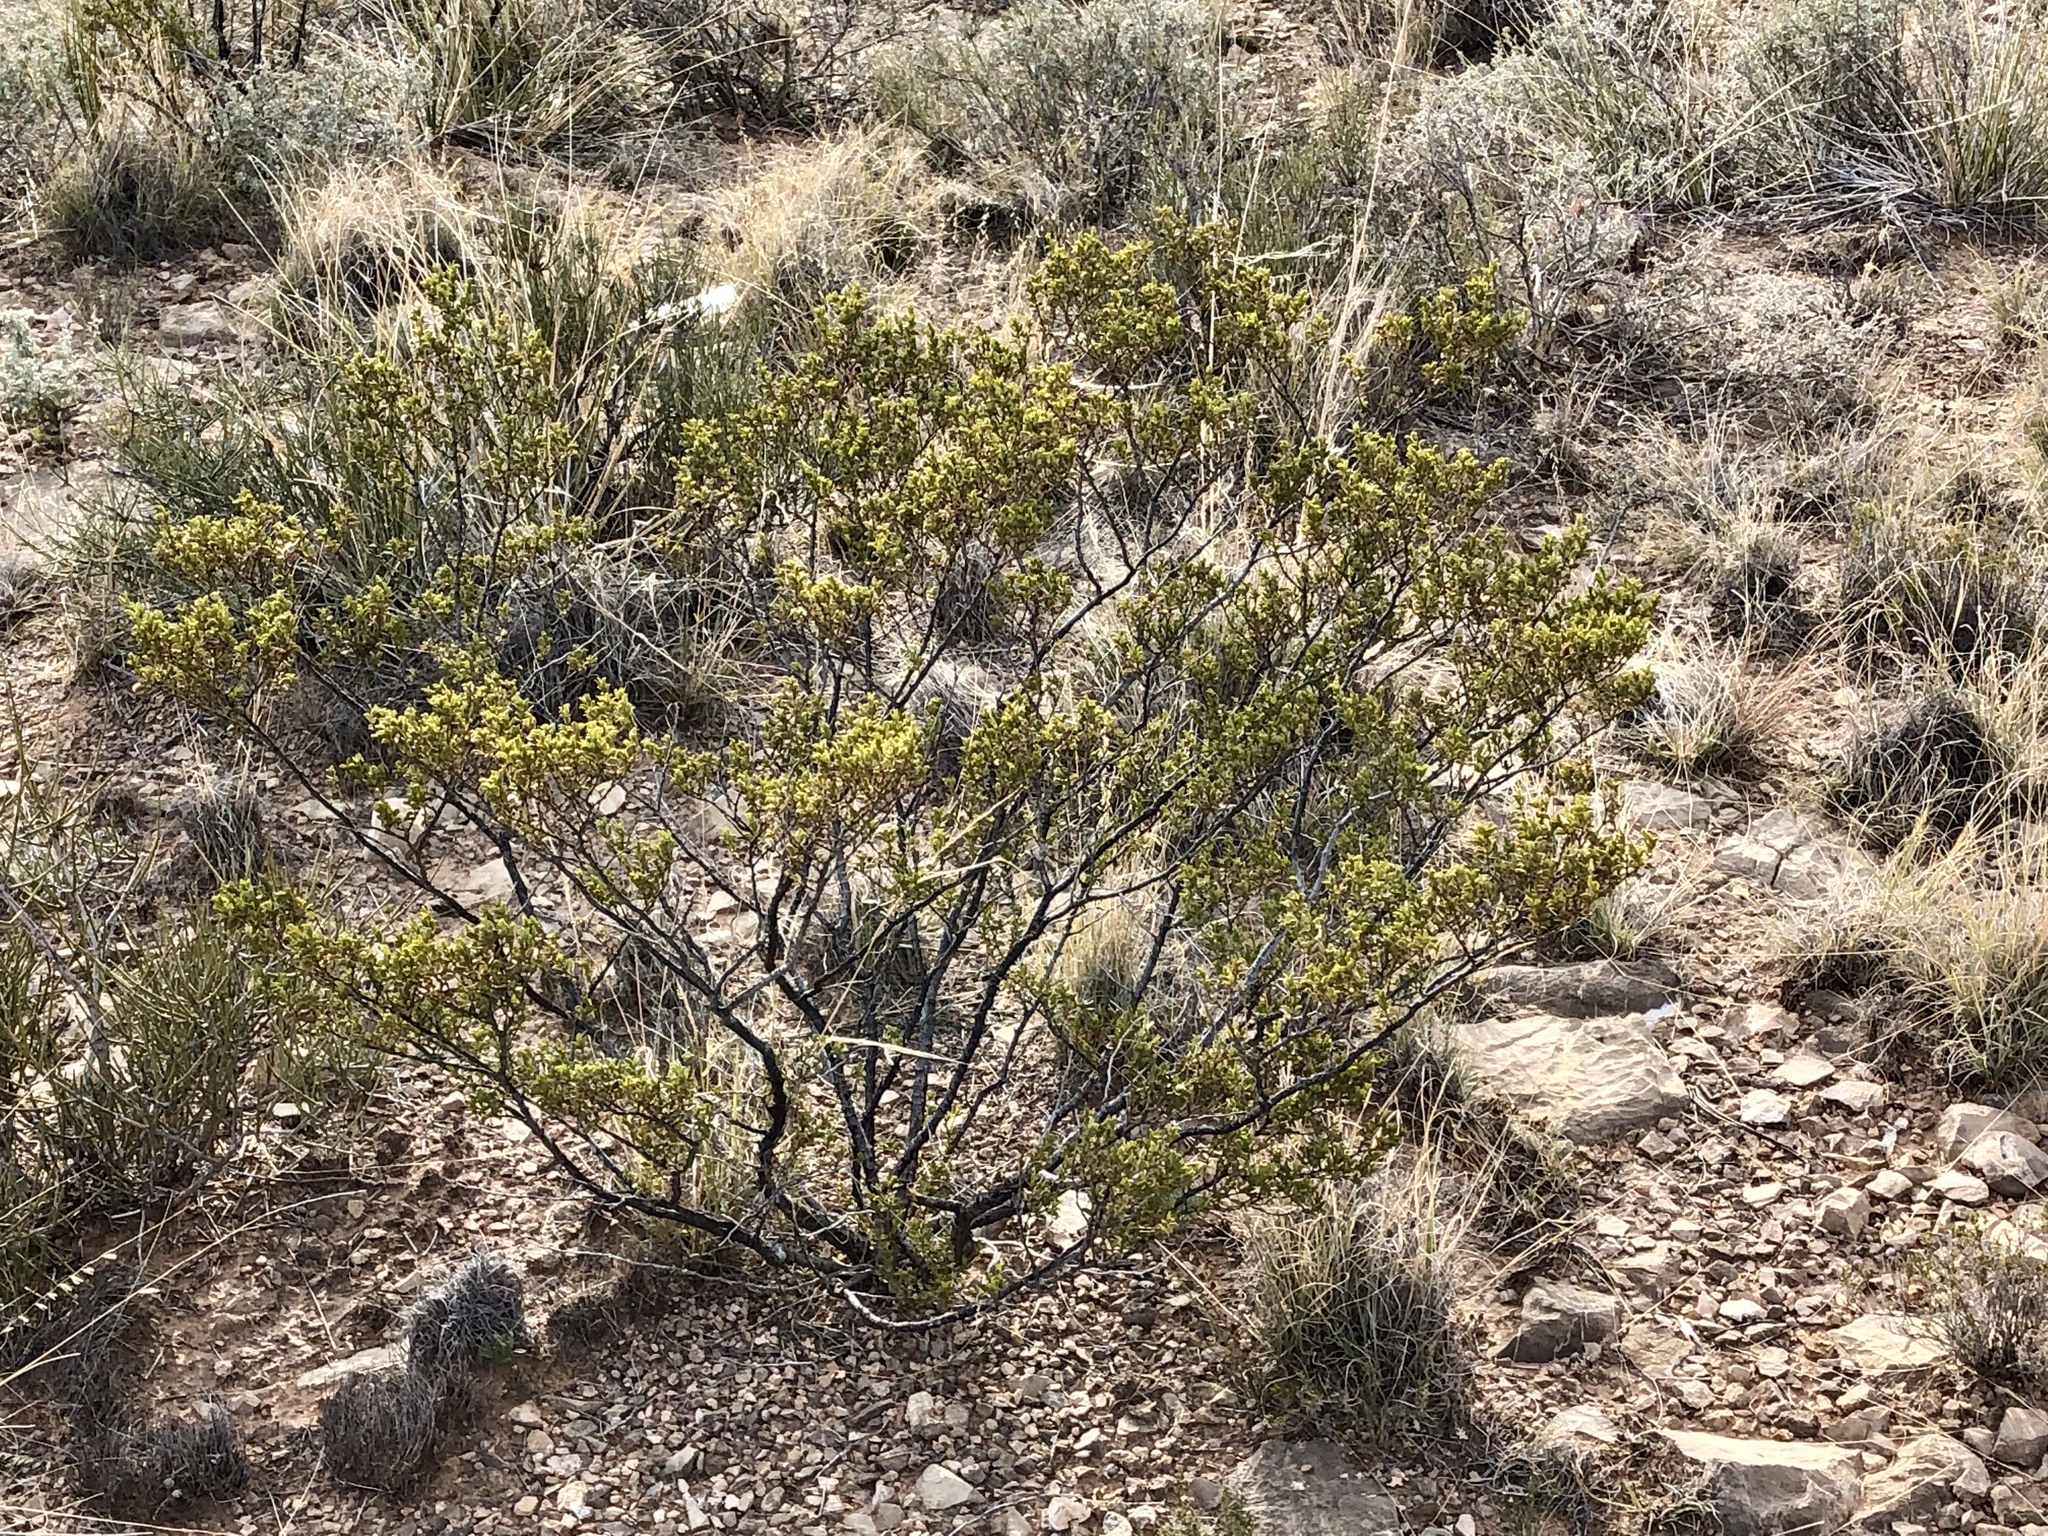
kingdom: Plantae
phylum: Tracheophyta
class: Magnoliopsida
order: Zygophyllales
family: Zygophyllaceae
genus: Larrea
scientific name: Larrea tridentata
